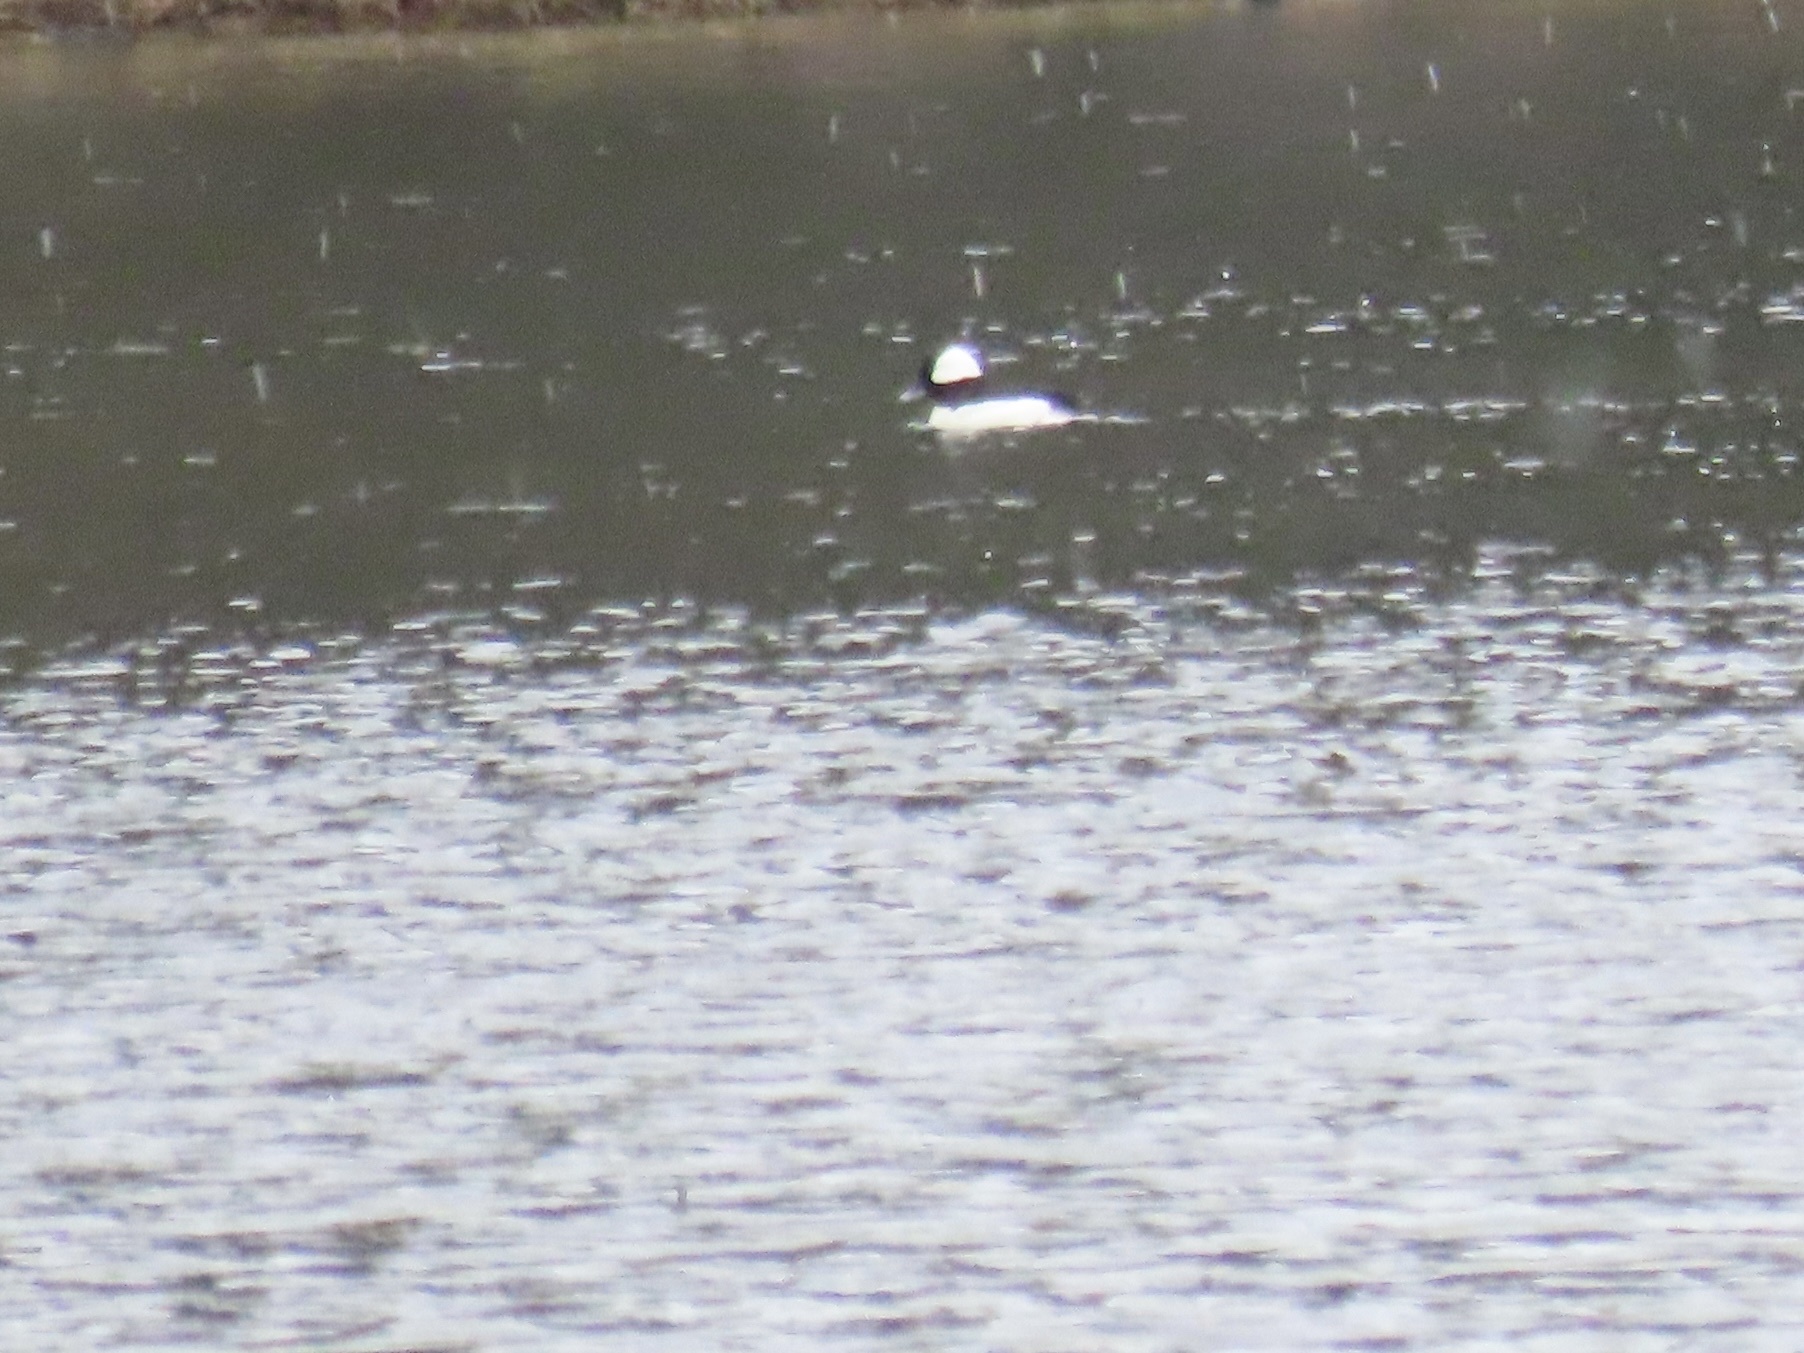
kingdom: Animalia
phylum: Chordata
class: Aves
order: Anseriformes
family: Anatidae
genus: Bucephala
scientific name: Bucephala albeola
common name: Bufflehead
